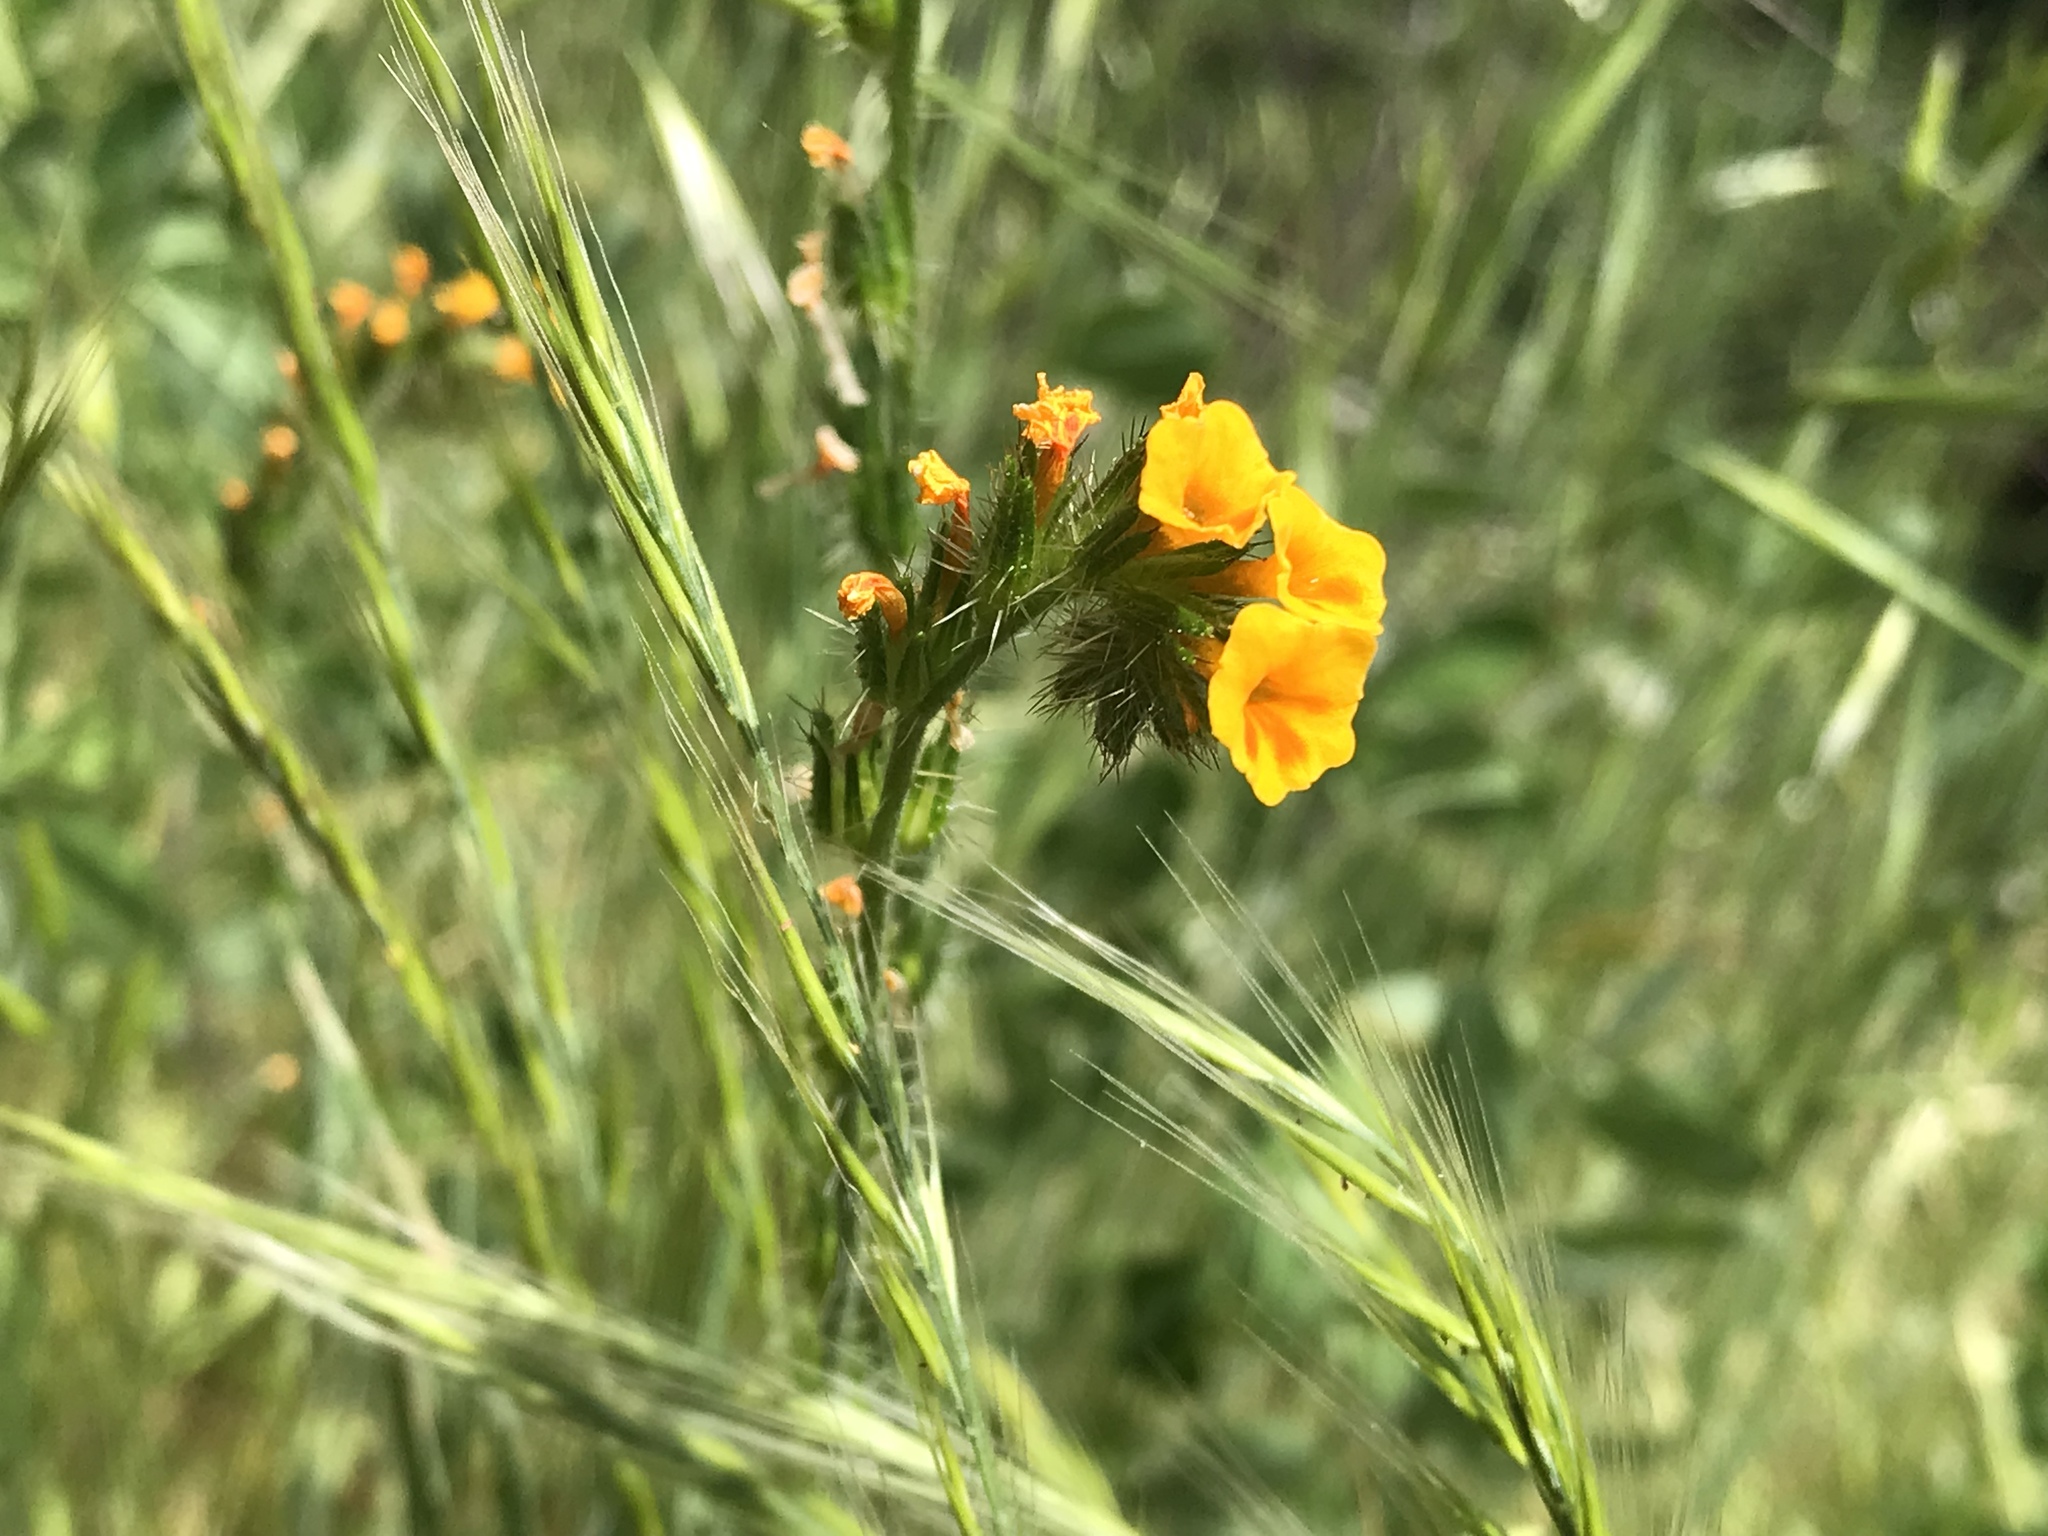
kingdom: Plantae
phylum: Tracheophyta
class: Magnoliopsida
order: Boraginales
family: Boraginaceae
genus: Amsinckia
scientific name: Amsinckia menziesii
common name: Menzies' fiddleneck
